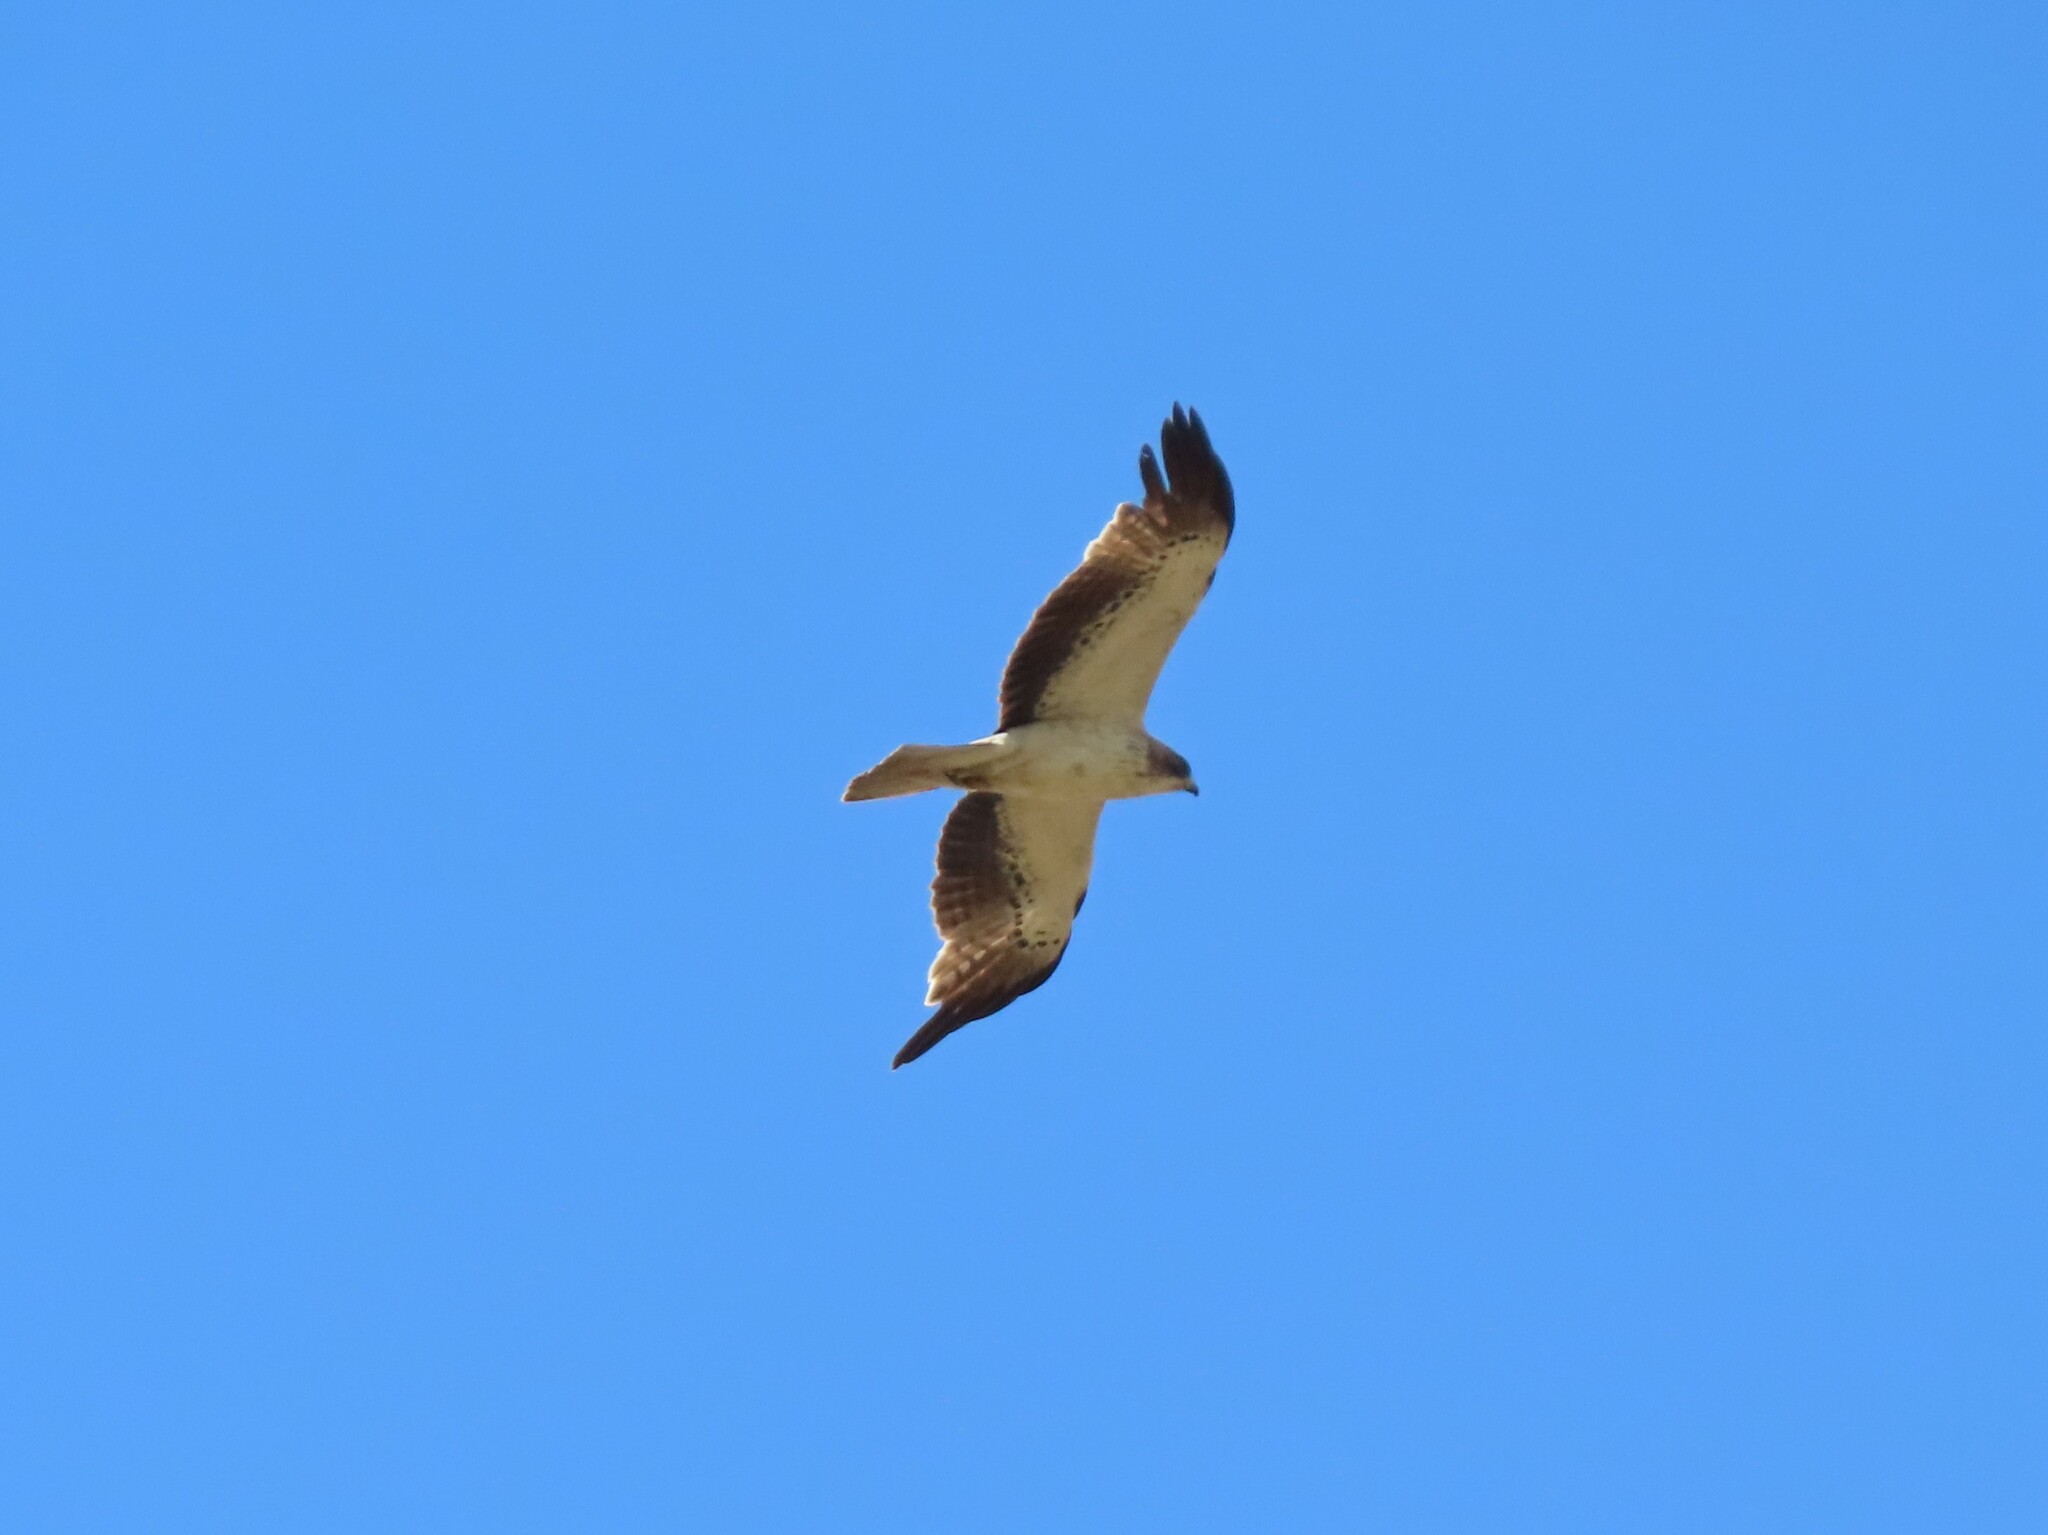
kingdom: Animalia
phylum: Chordata
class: Aves
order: Accipitriformes
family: Accipitridae
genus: Hieraaetus
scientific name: Hieraaetus pennatus
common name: Booted eagle
